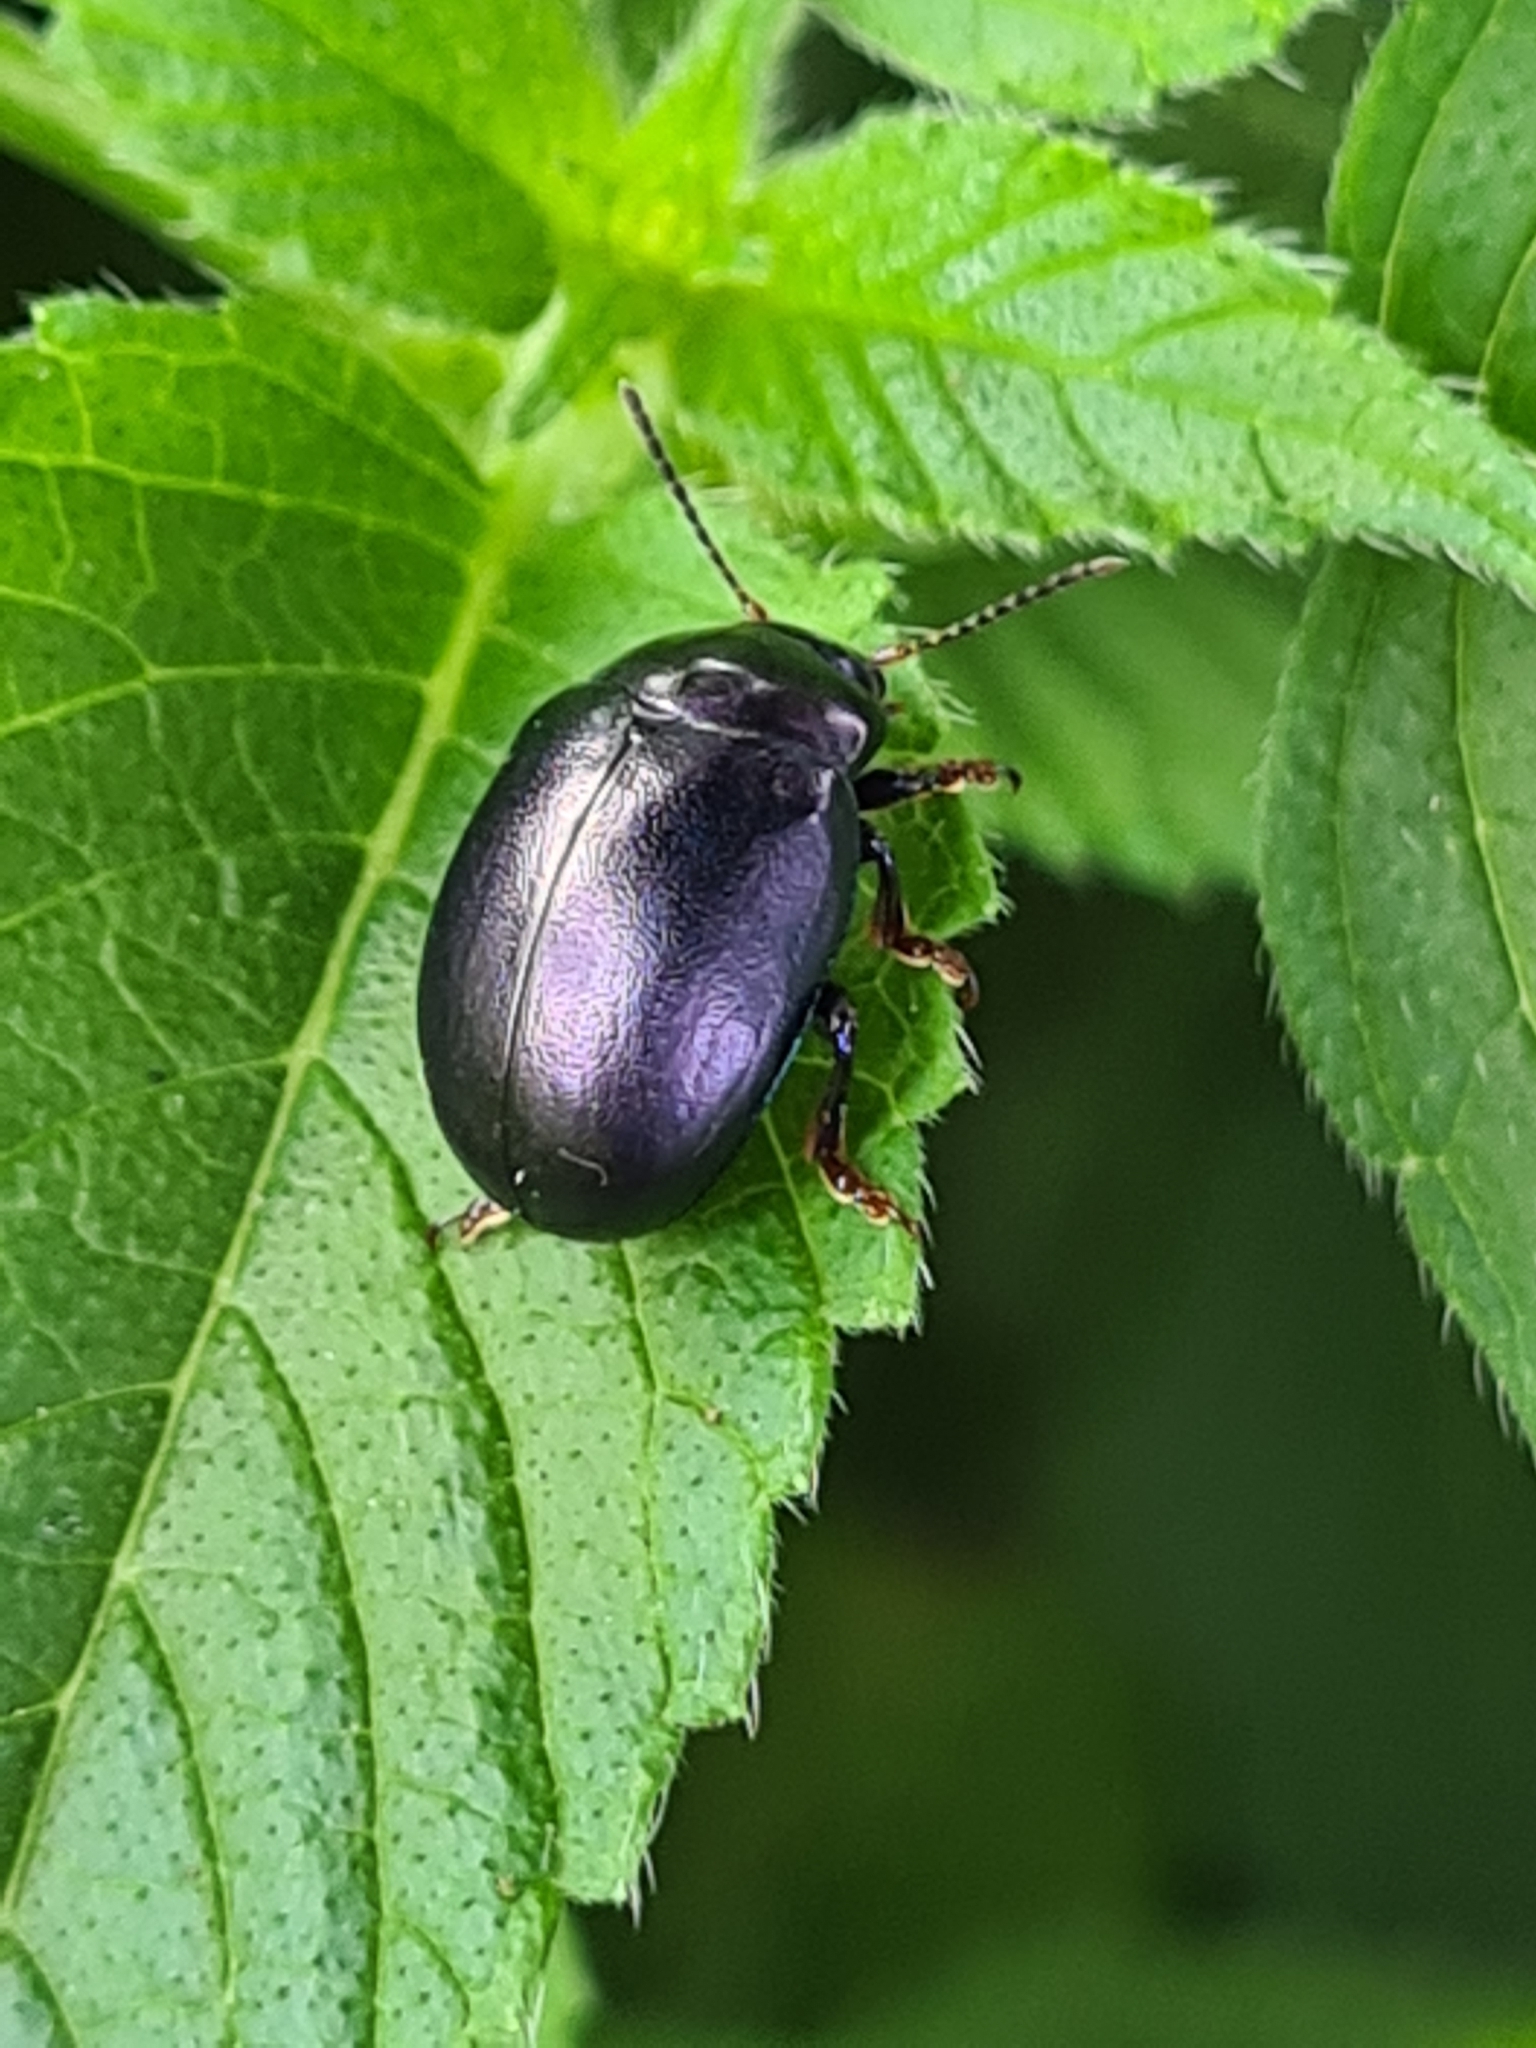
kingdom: Animalia
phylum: Arthropoda
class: Insecta
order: Coleoptera
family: Chrysomelidae
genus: Chrysolina
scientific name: Chrysolina sturmi
